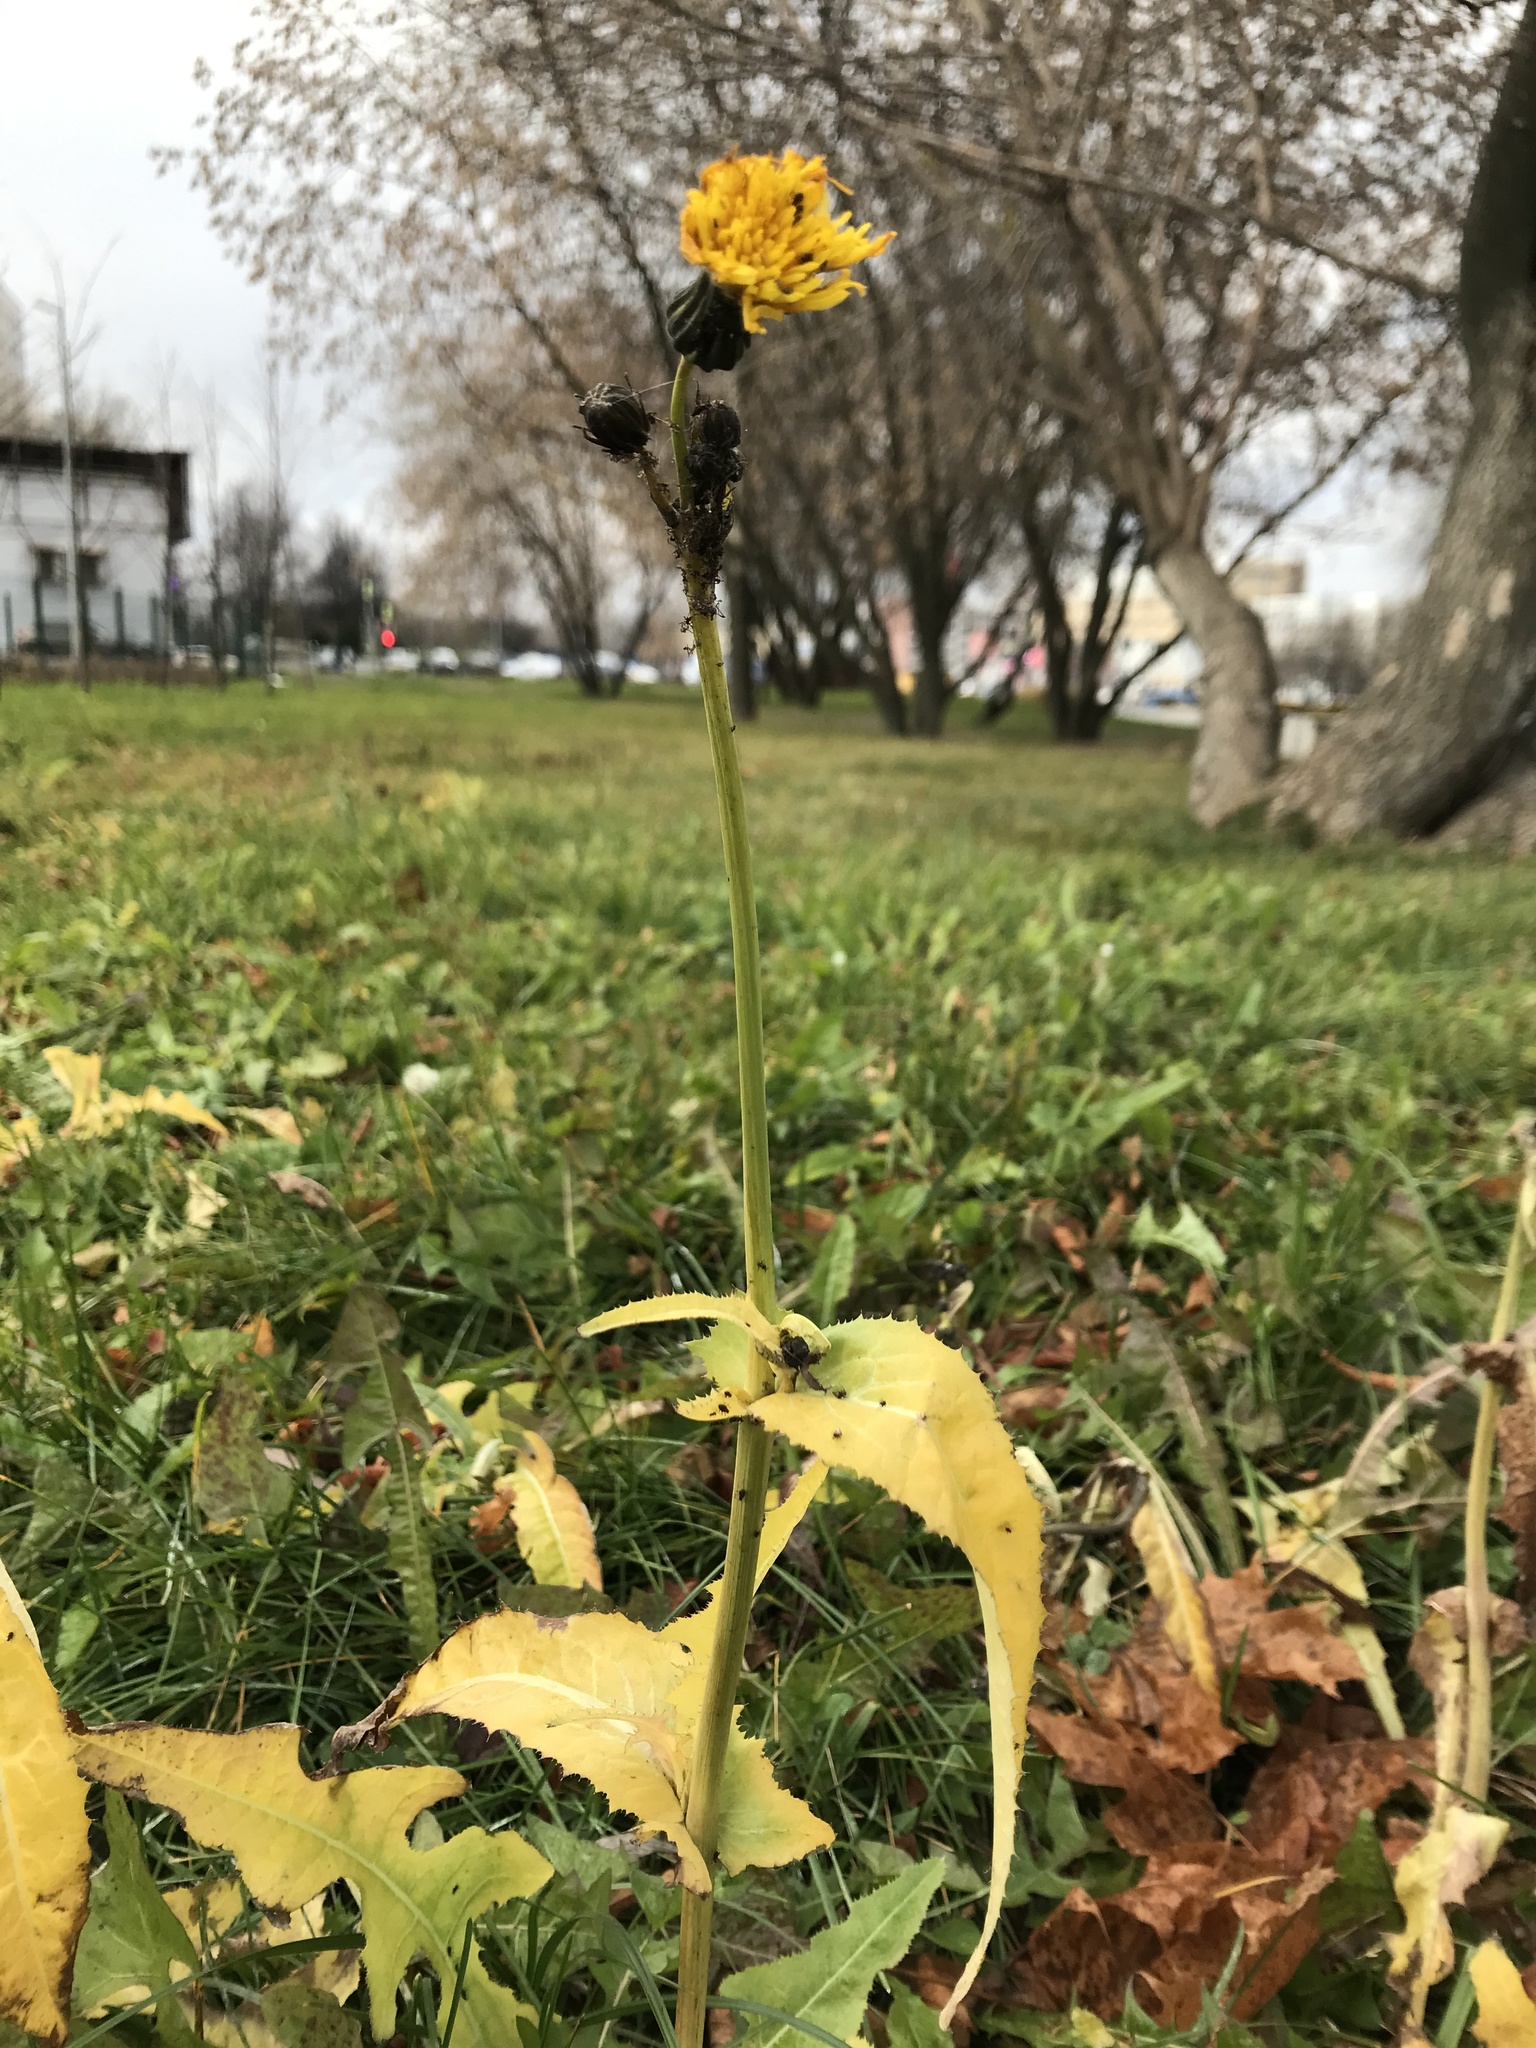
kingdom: Plantae
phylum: Tracheophyta
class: Magnoliopsida
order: Asterales
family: Asteraceae
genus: Sonchus
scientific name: Sonchus arvensis
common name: Perennial sow-thistle
